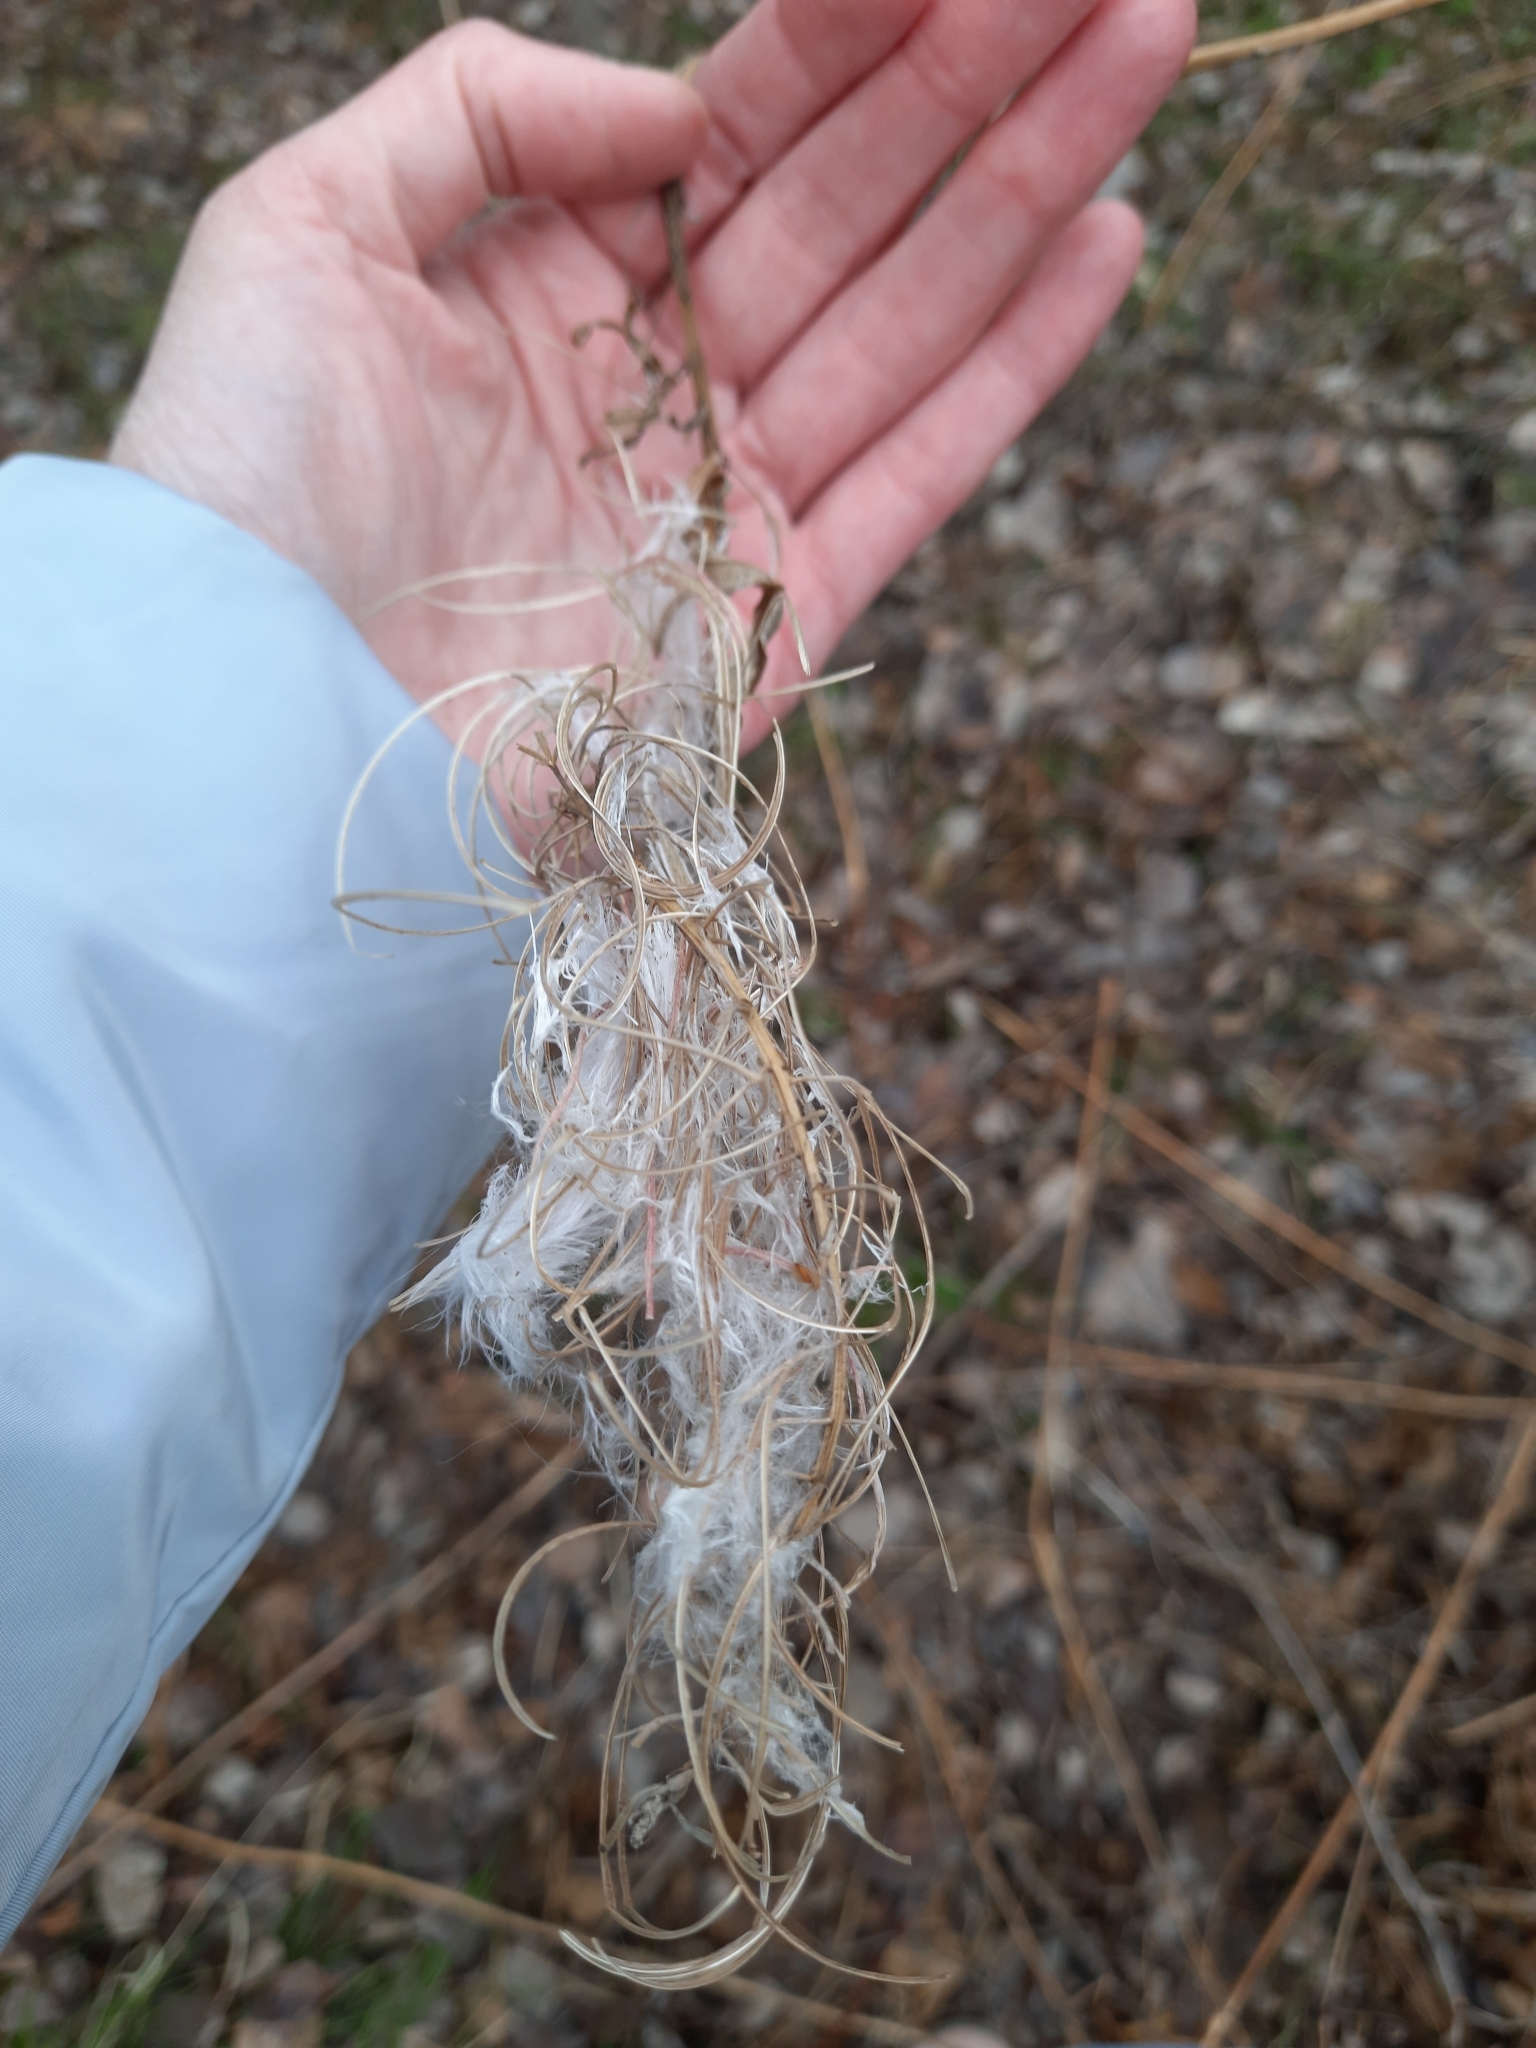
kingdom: Plantae
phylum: Tracheophyta
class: Magnoliopsida
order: Myrtales
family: Onagraceae
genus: Chamaenerion
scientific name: Chamaenerion angustifolium
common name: Fireweed
